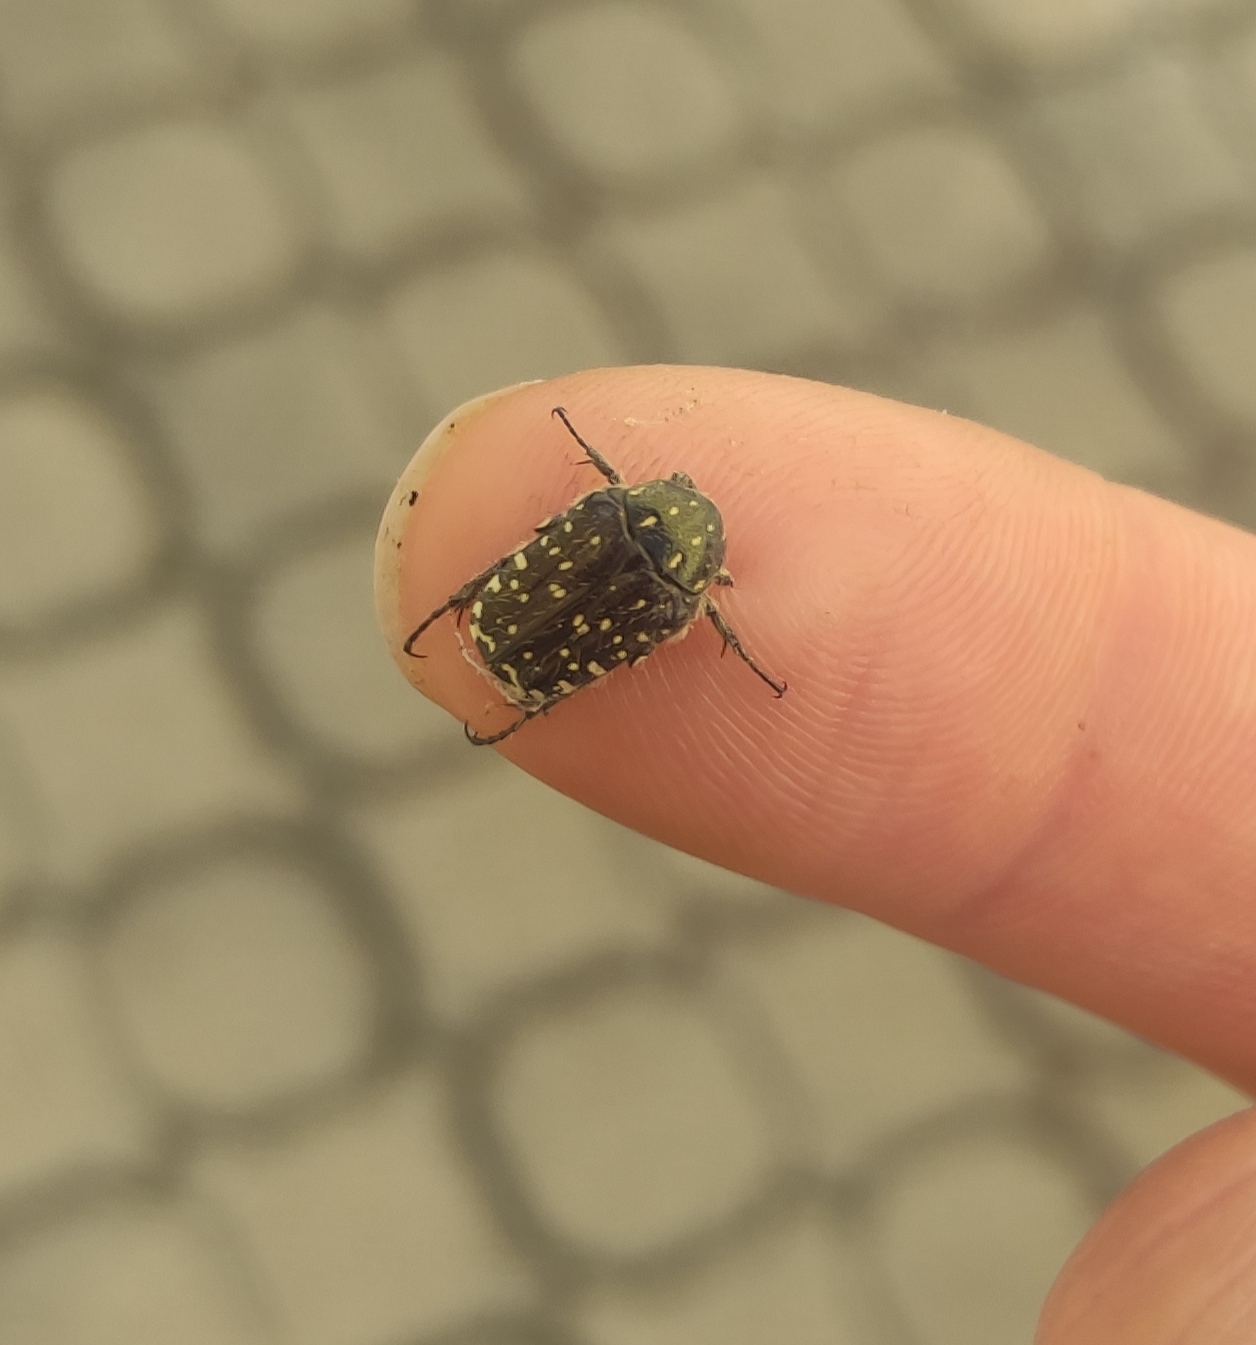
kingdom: Animalia
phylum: Arthropoda
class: Insecta
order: Coleoptera
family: Scarabaeidae
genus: Oxythyrea
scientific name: Oxythyrea funesta
